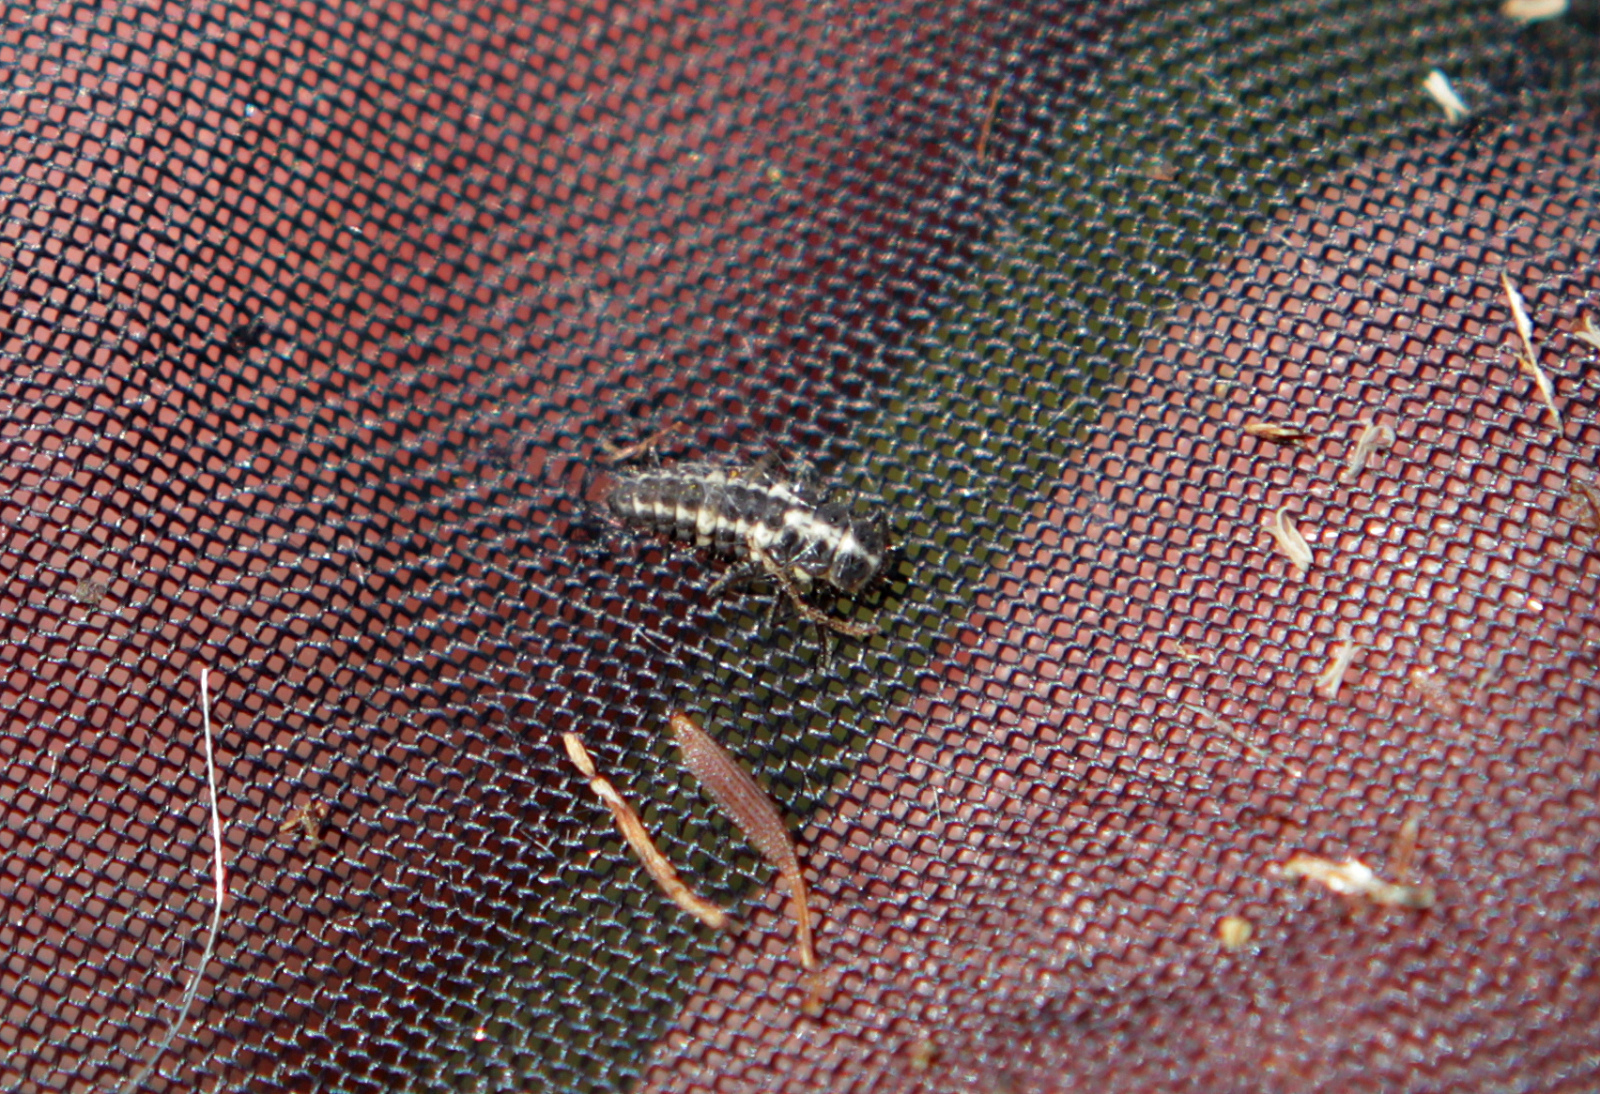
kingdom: Animalia
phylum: Arthropoda
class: Insecta
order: Coleoptera
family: Coccinellidae
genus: Coccinula
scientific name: Coccinula quatuordecimpustulata
